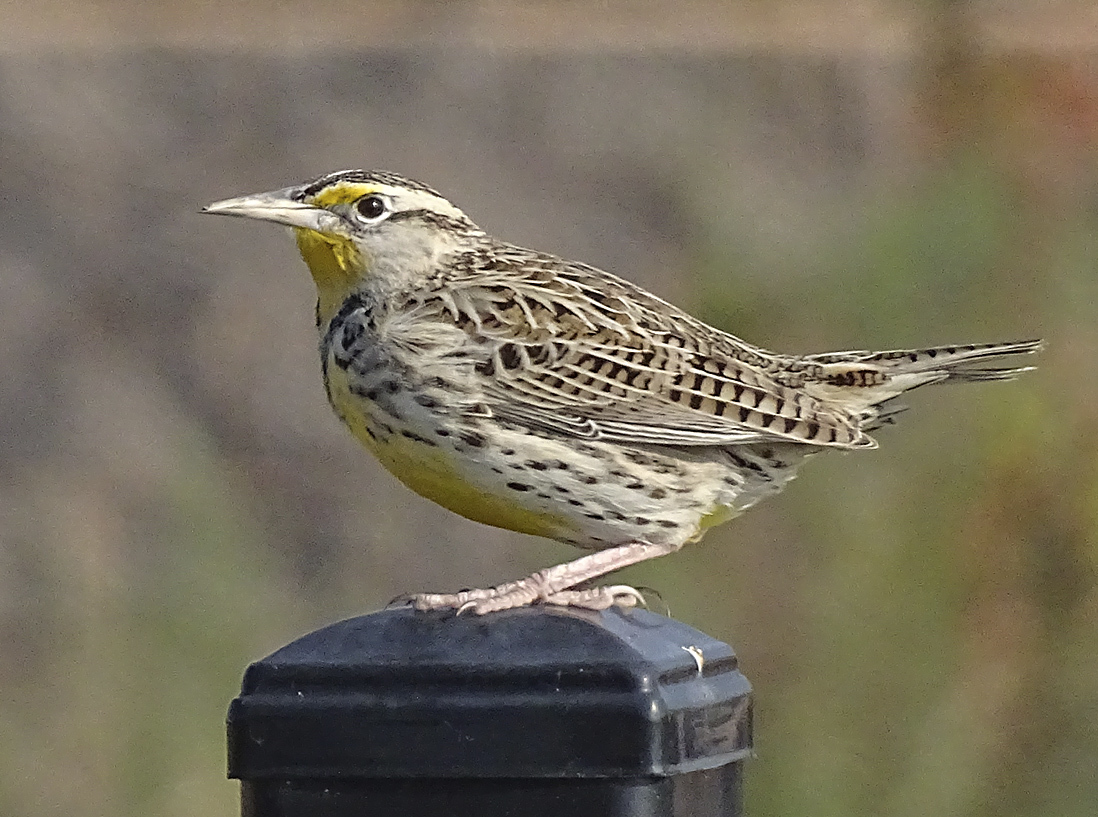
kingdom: Animalia
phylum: Chordata
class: Aves
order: Passeriformes
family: Icteridae
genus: Sturnella
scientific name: Sturnella neglecta
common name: Western meadowlark
